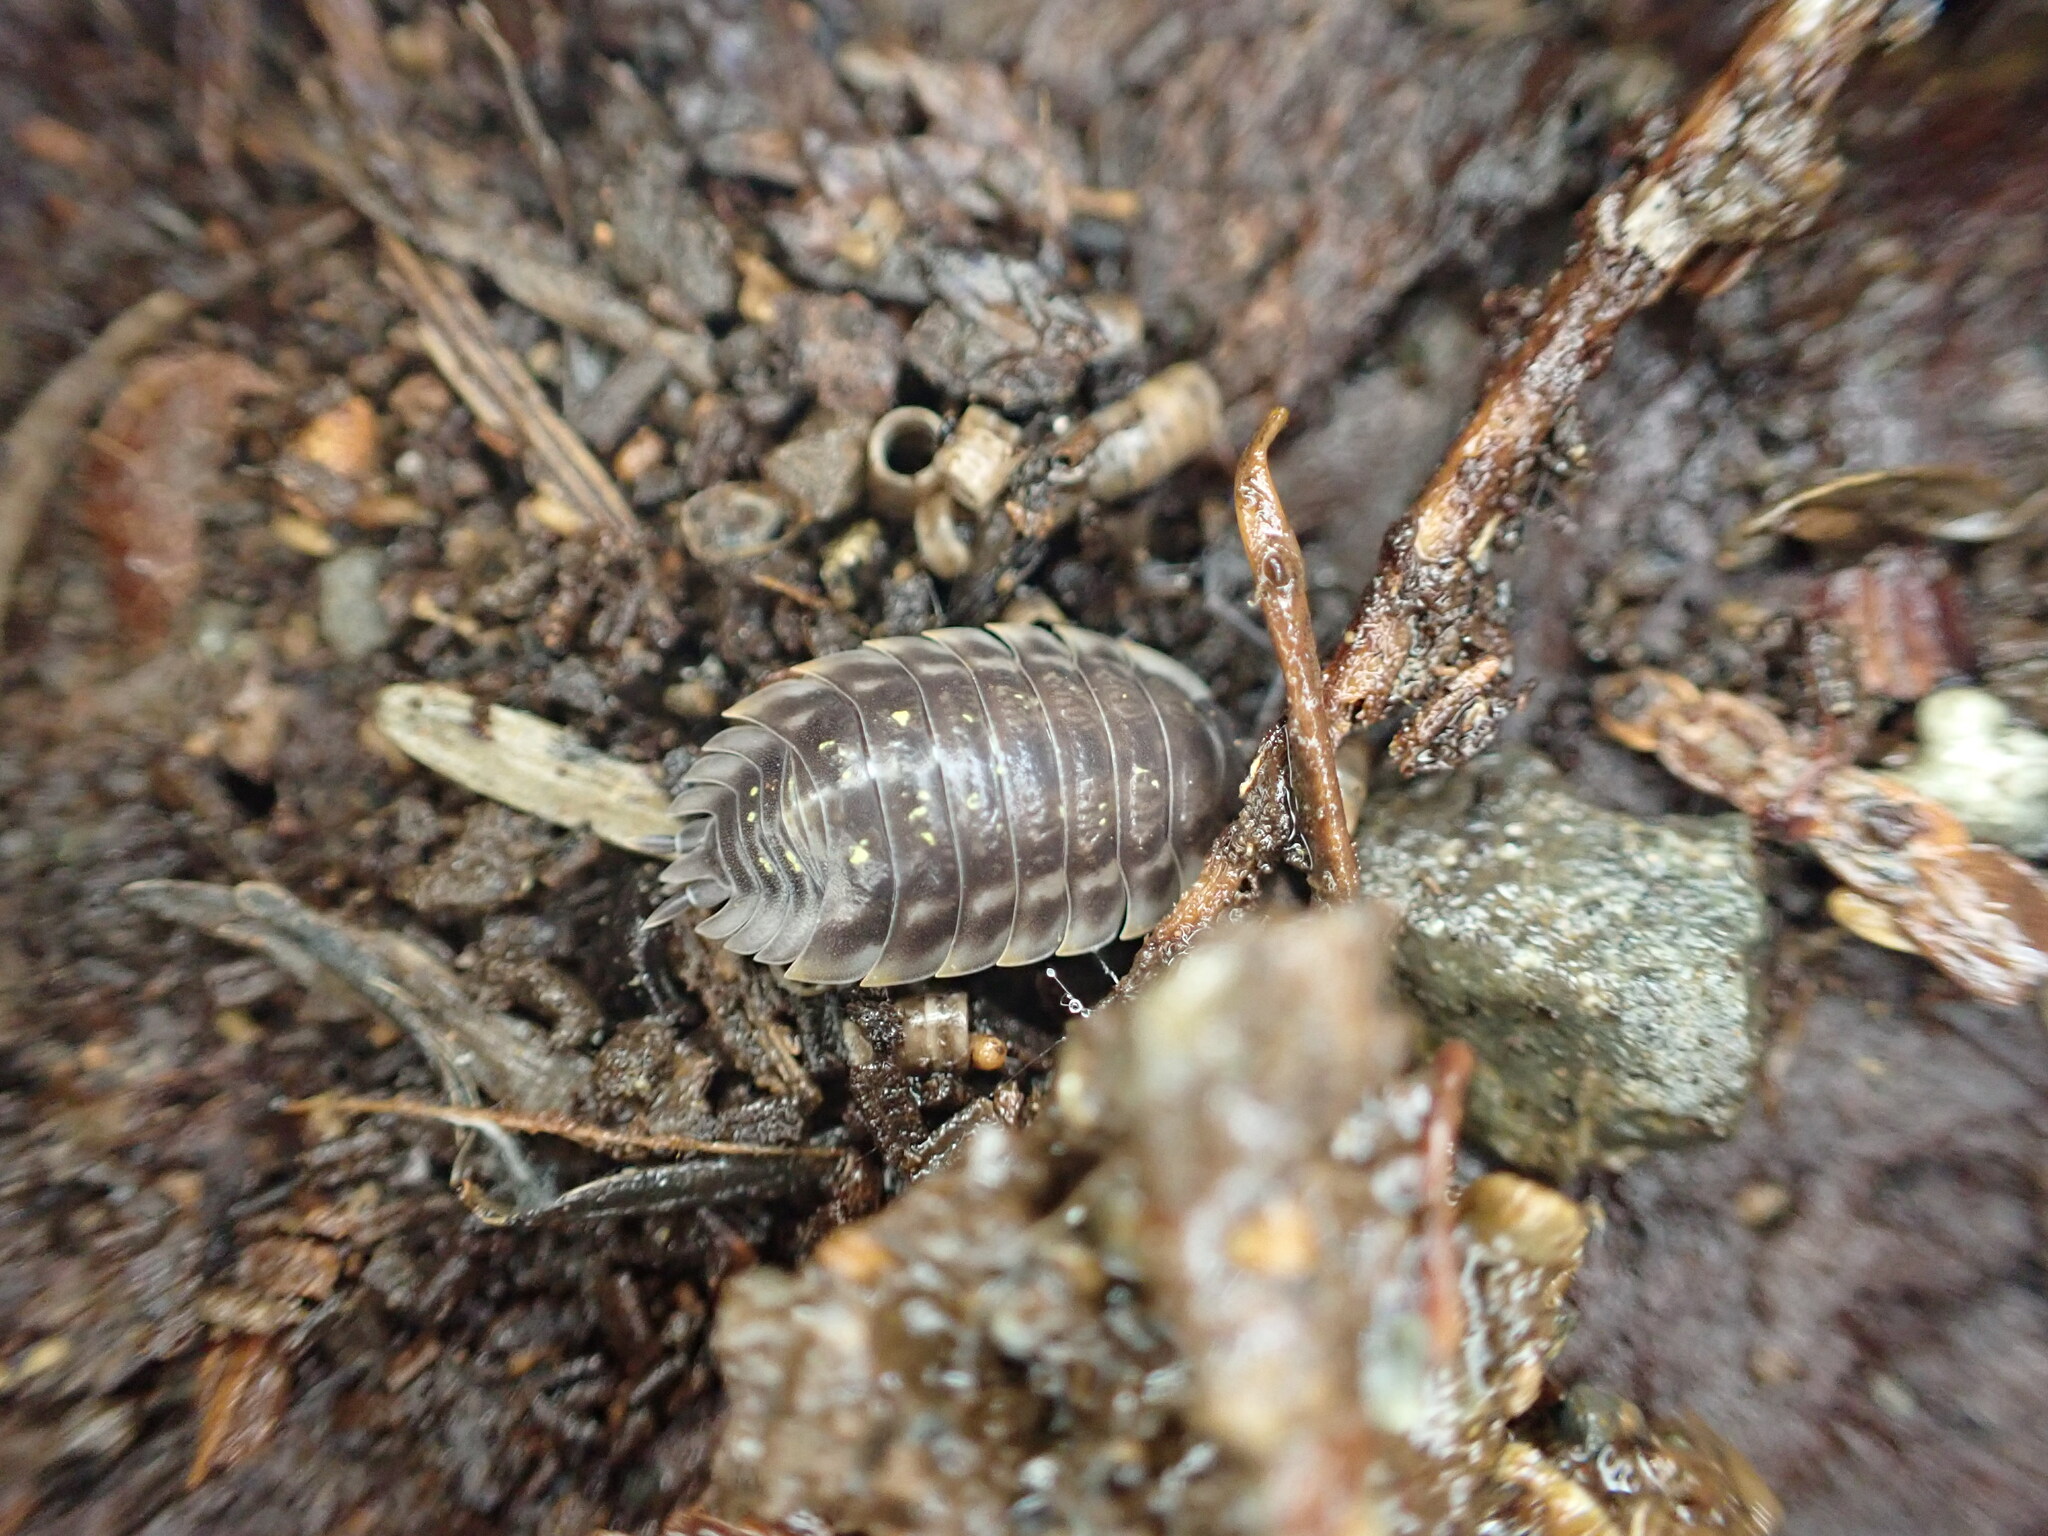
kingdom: Animalia
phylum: Arthropoda
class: Malacostraca
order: Isopoda
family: Oniscidae
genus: Oniscus
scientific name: Oniscus asellus
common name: Common shiny woodlouse
